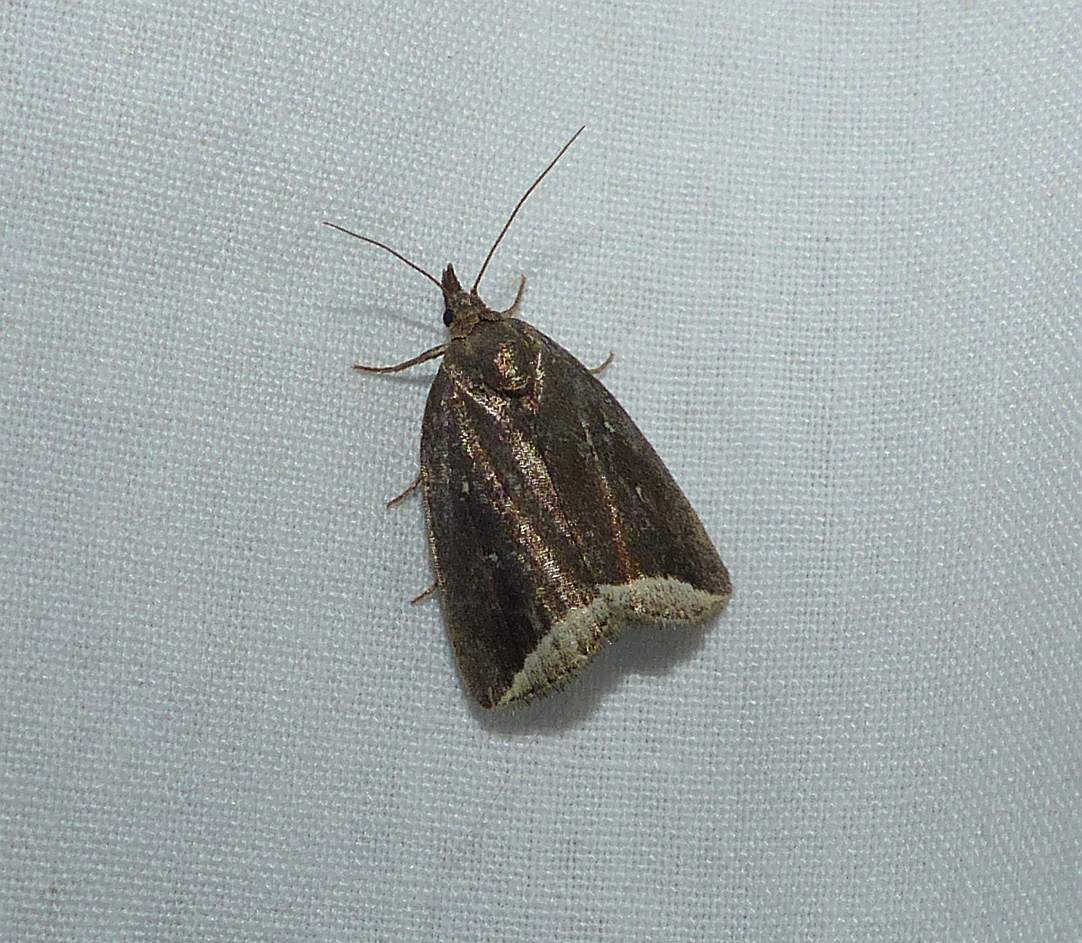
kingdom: Animalia
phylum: Arthropoda
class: Insecta
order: Lepidoptera
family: Erebidae
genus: Capis
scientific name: Capis curvata
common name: Curved halter moth
